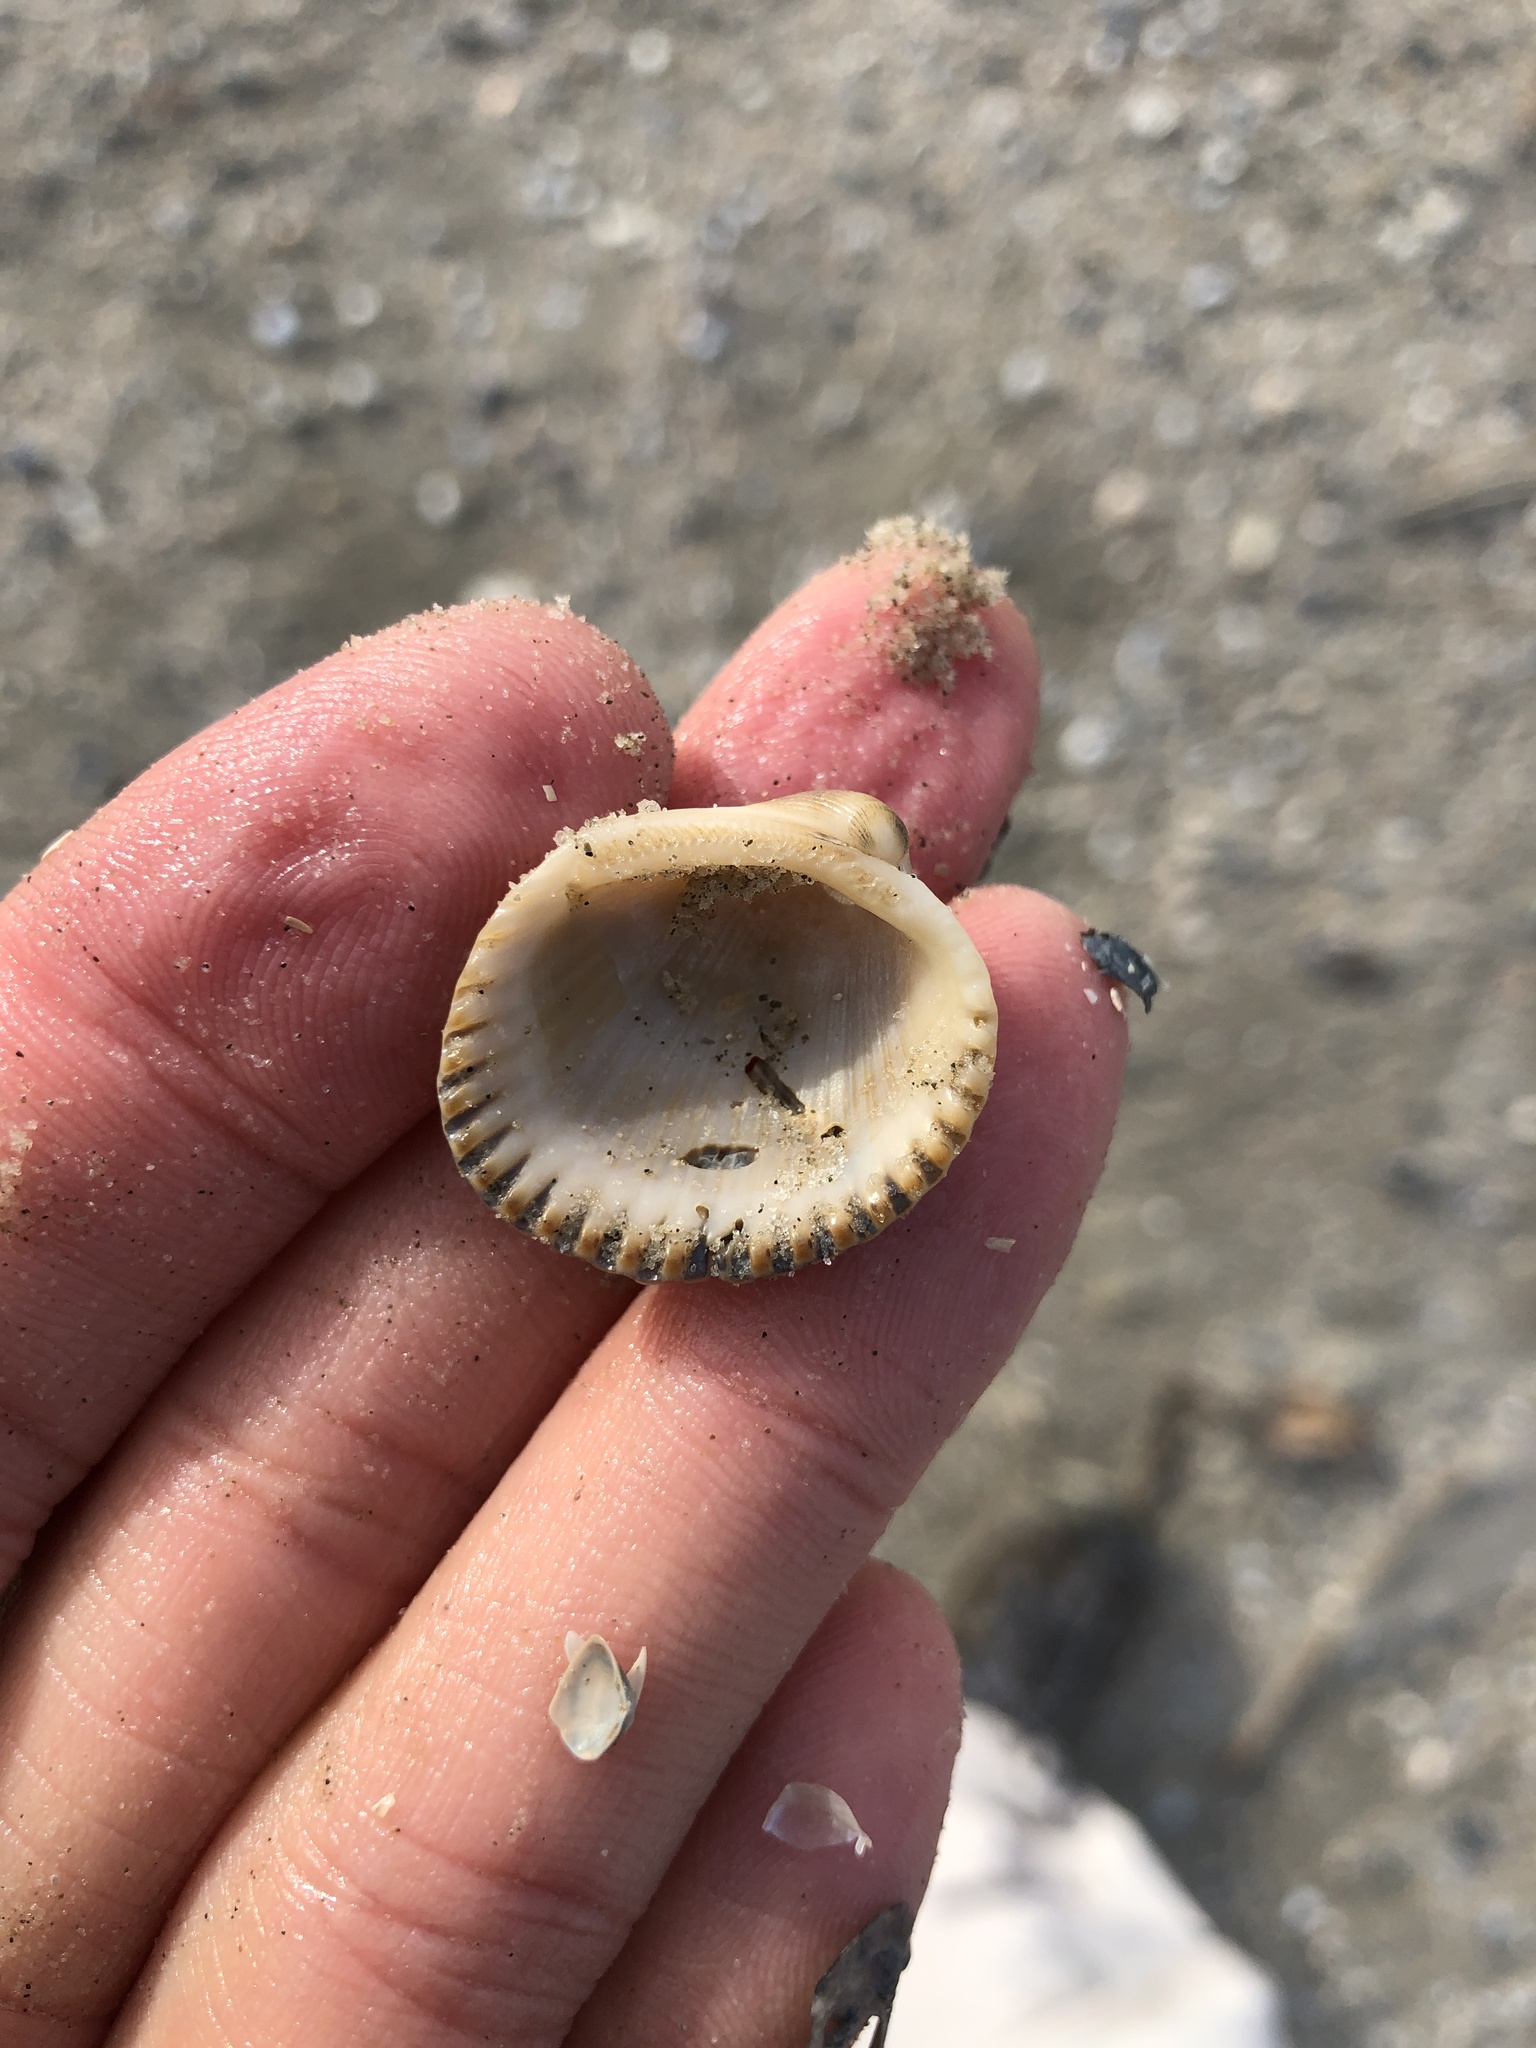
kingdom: Animalia
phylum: Mollusca
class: Bivalvia
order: Arcida
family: Arcidae
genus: Lunarca
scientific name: Lunarca ovalis
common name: Blood ark
